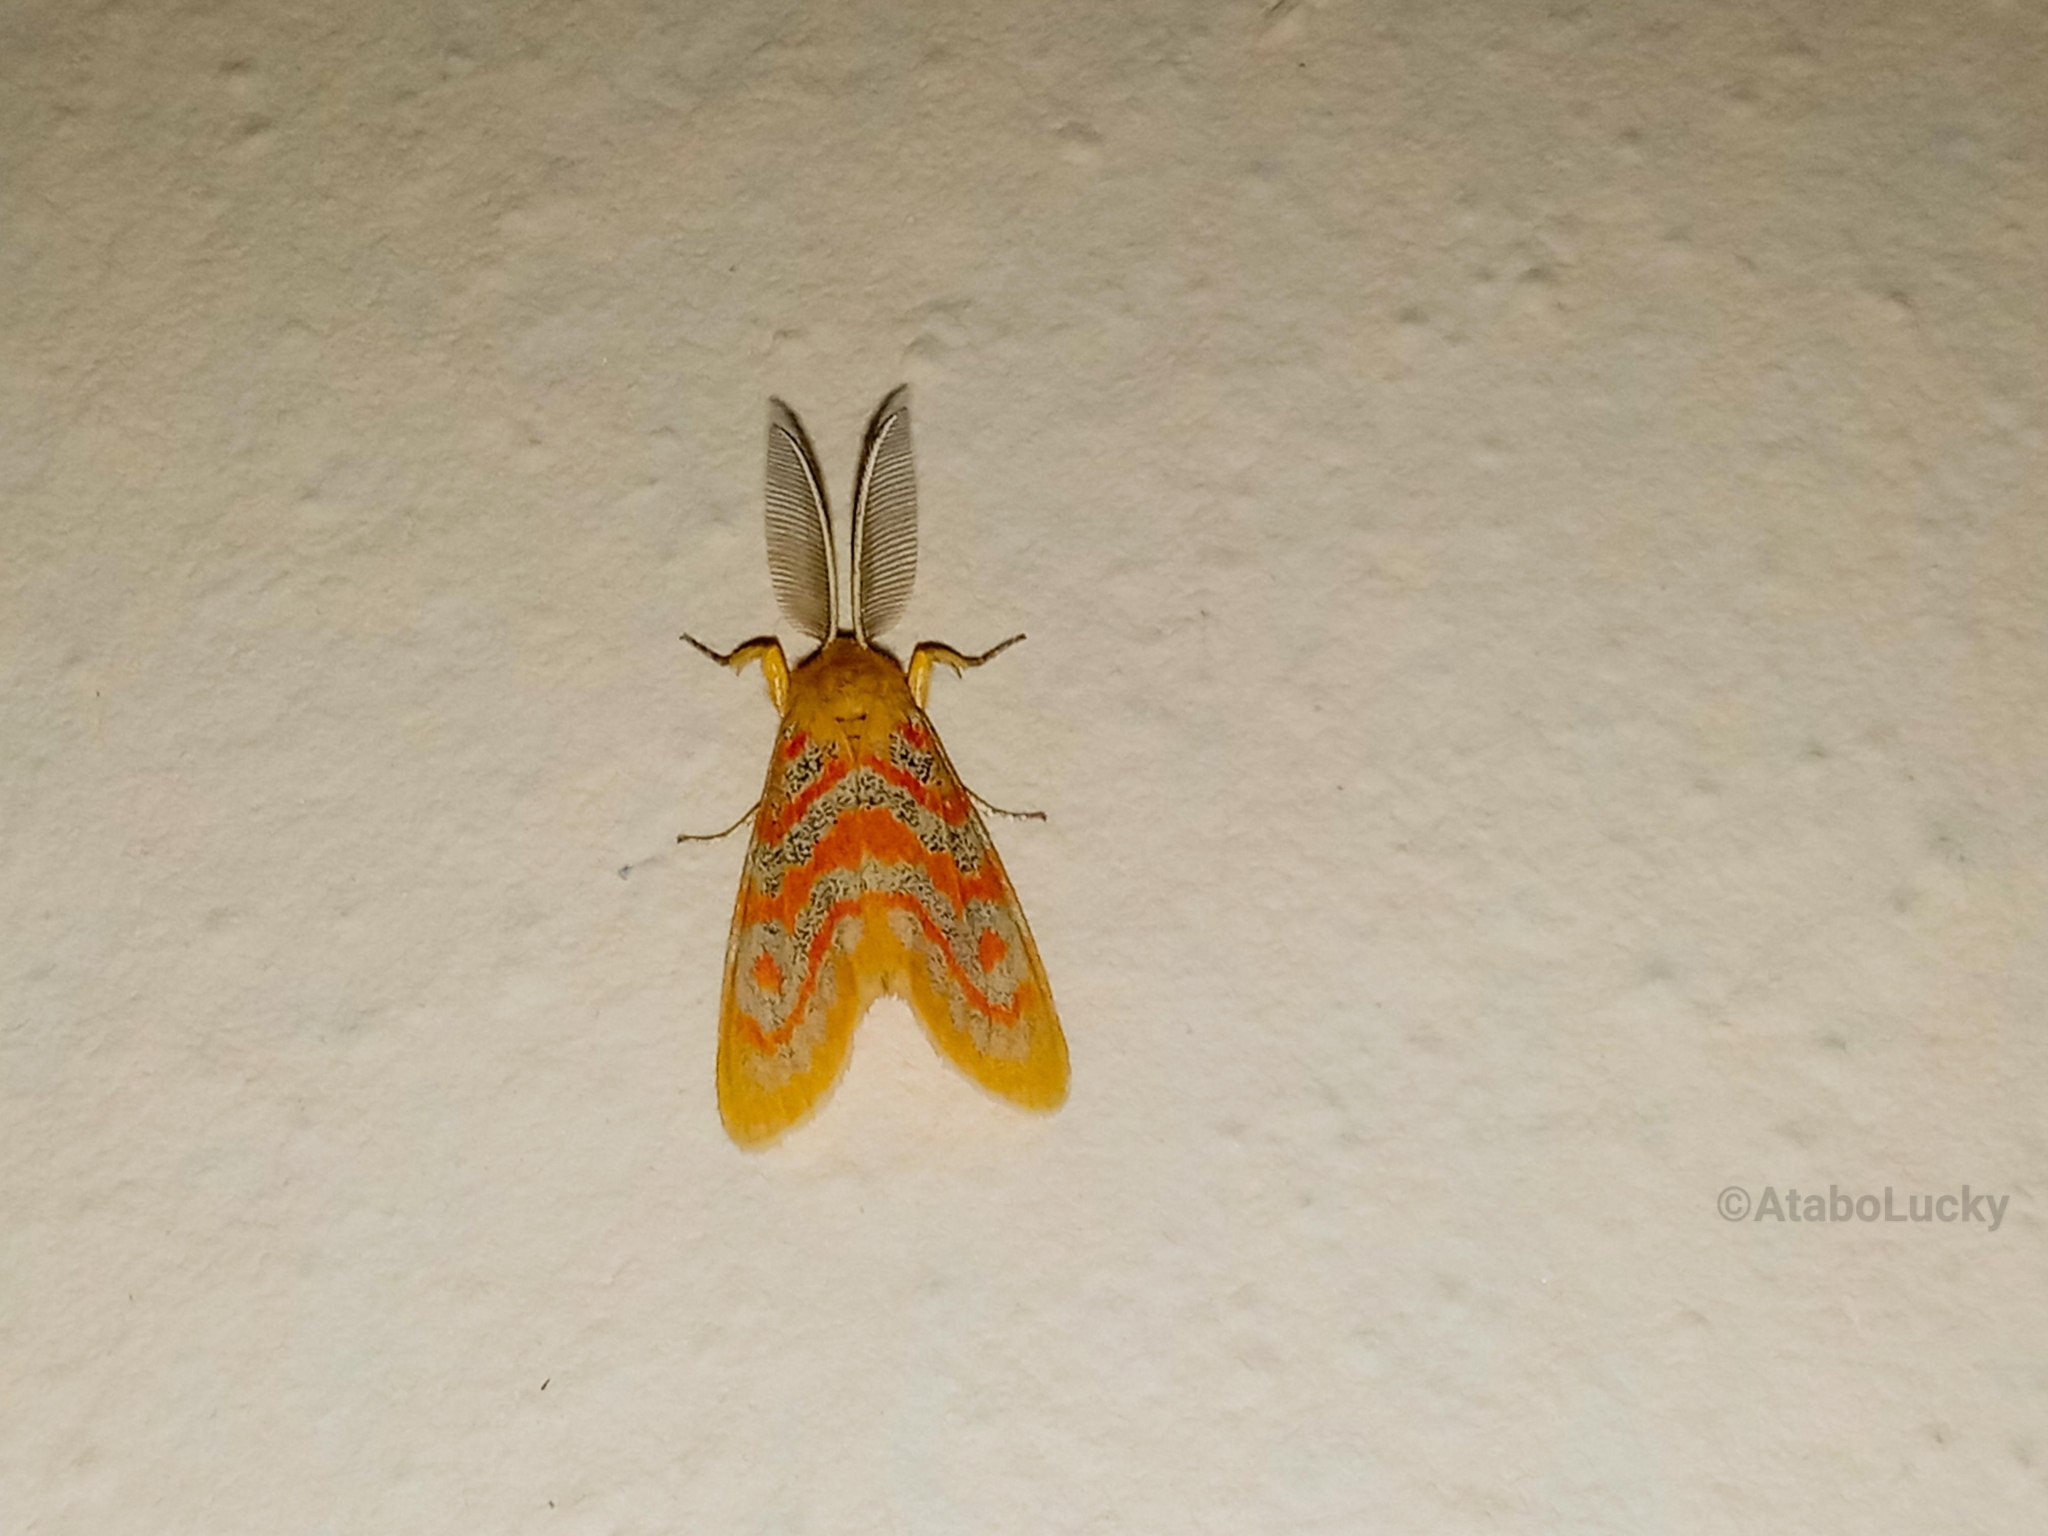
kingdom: Animalia
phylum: Arthropoda
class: Insecta
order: Lepidoptera
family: Erebidae
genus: Euproctoides
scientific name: Euproctoides acrisia
